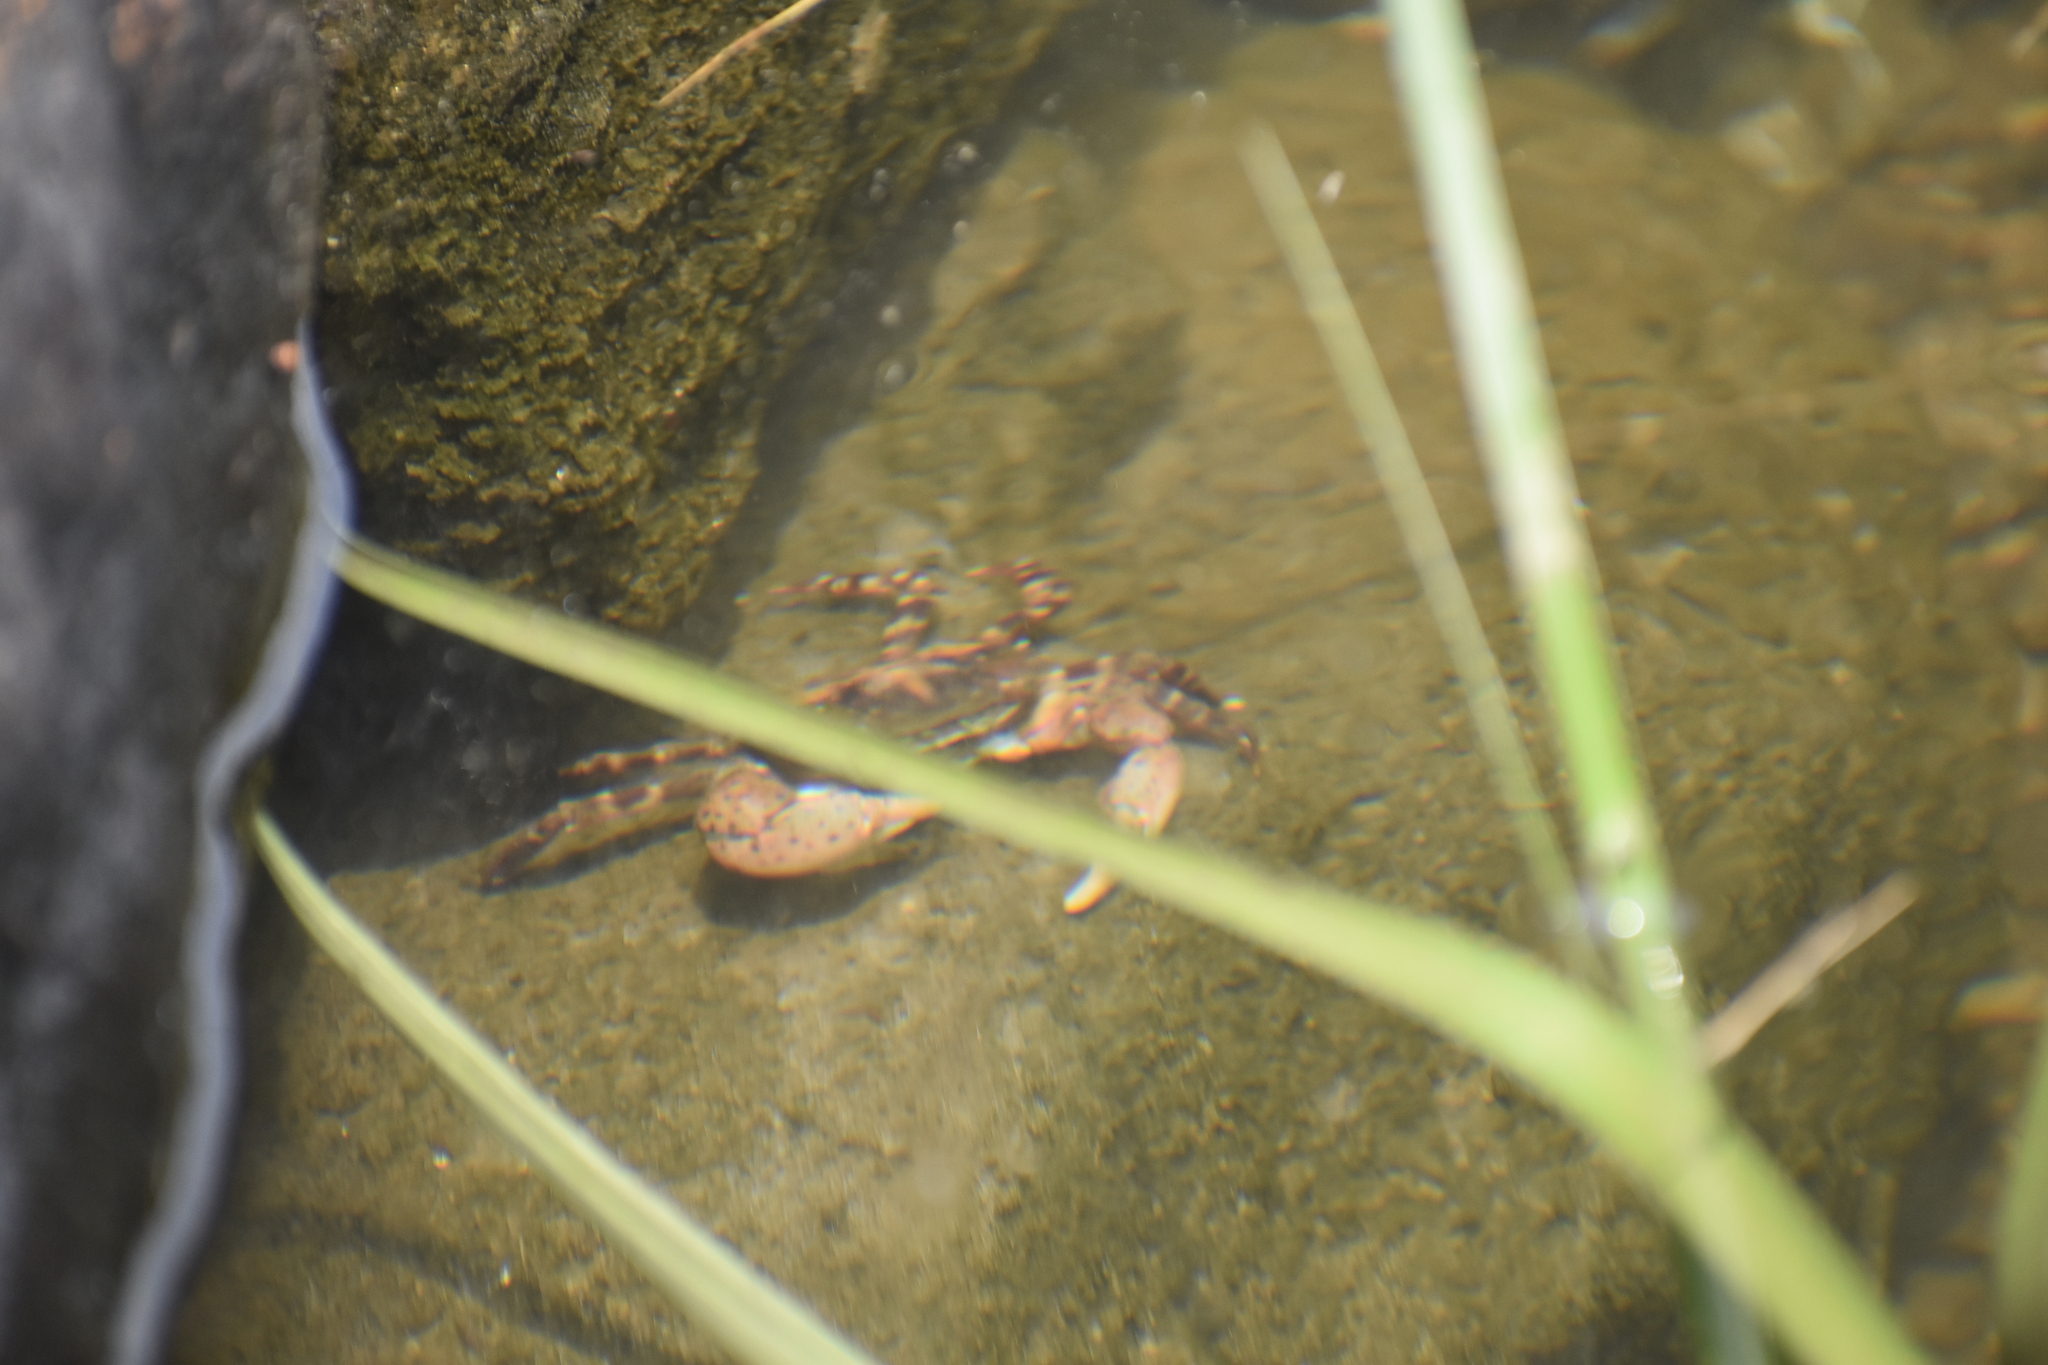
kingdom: Animalia
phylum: Arthropoda
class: Malacostraca
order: Decapoda
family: Varunidae
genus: Hemigrapsus
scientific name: Hemigrapsus sanguineus
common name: Asian shore crab
